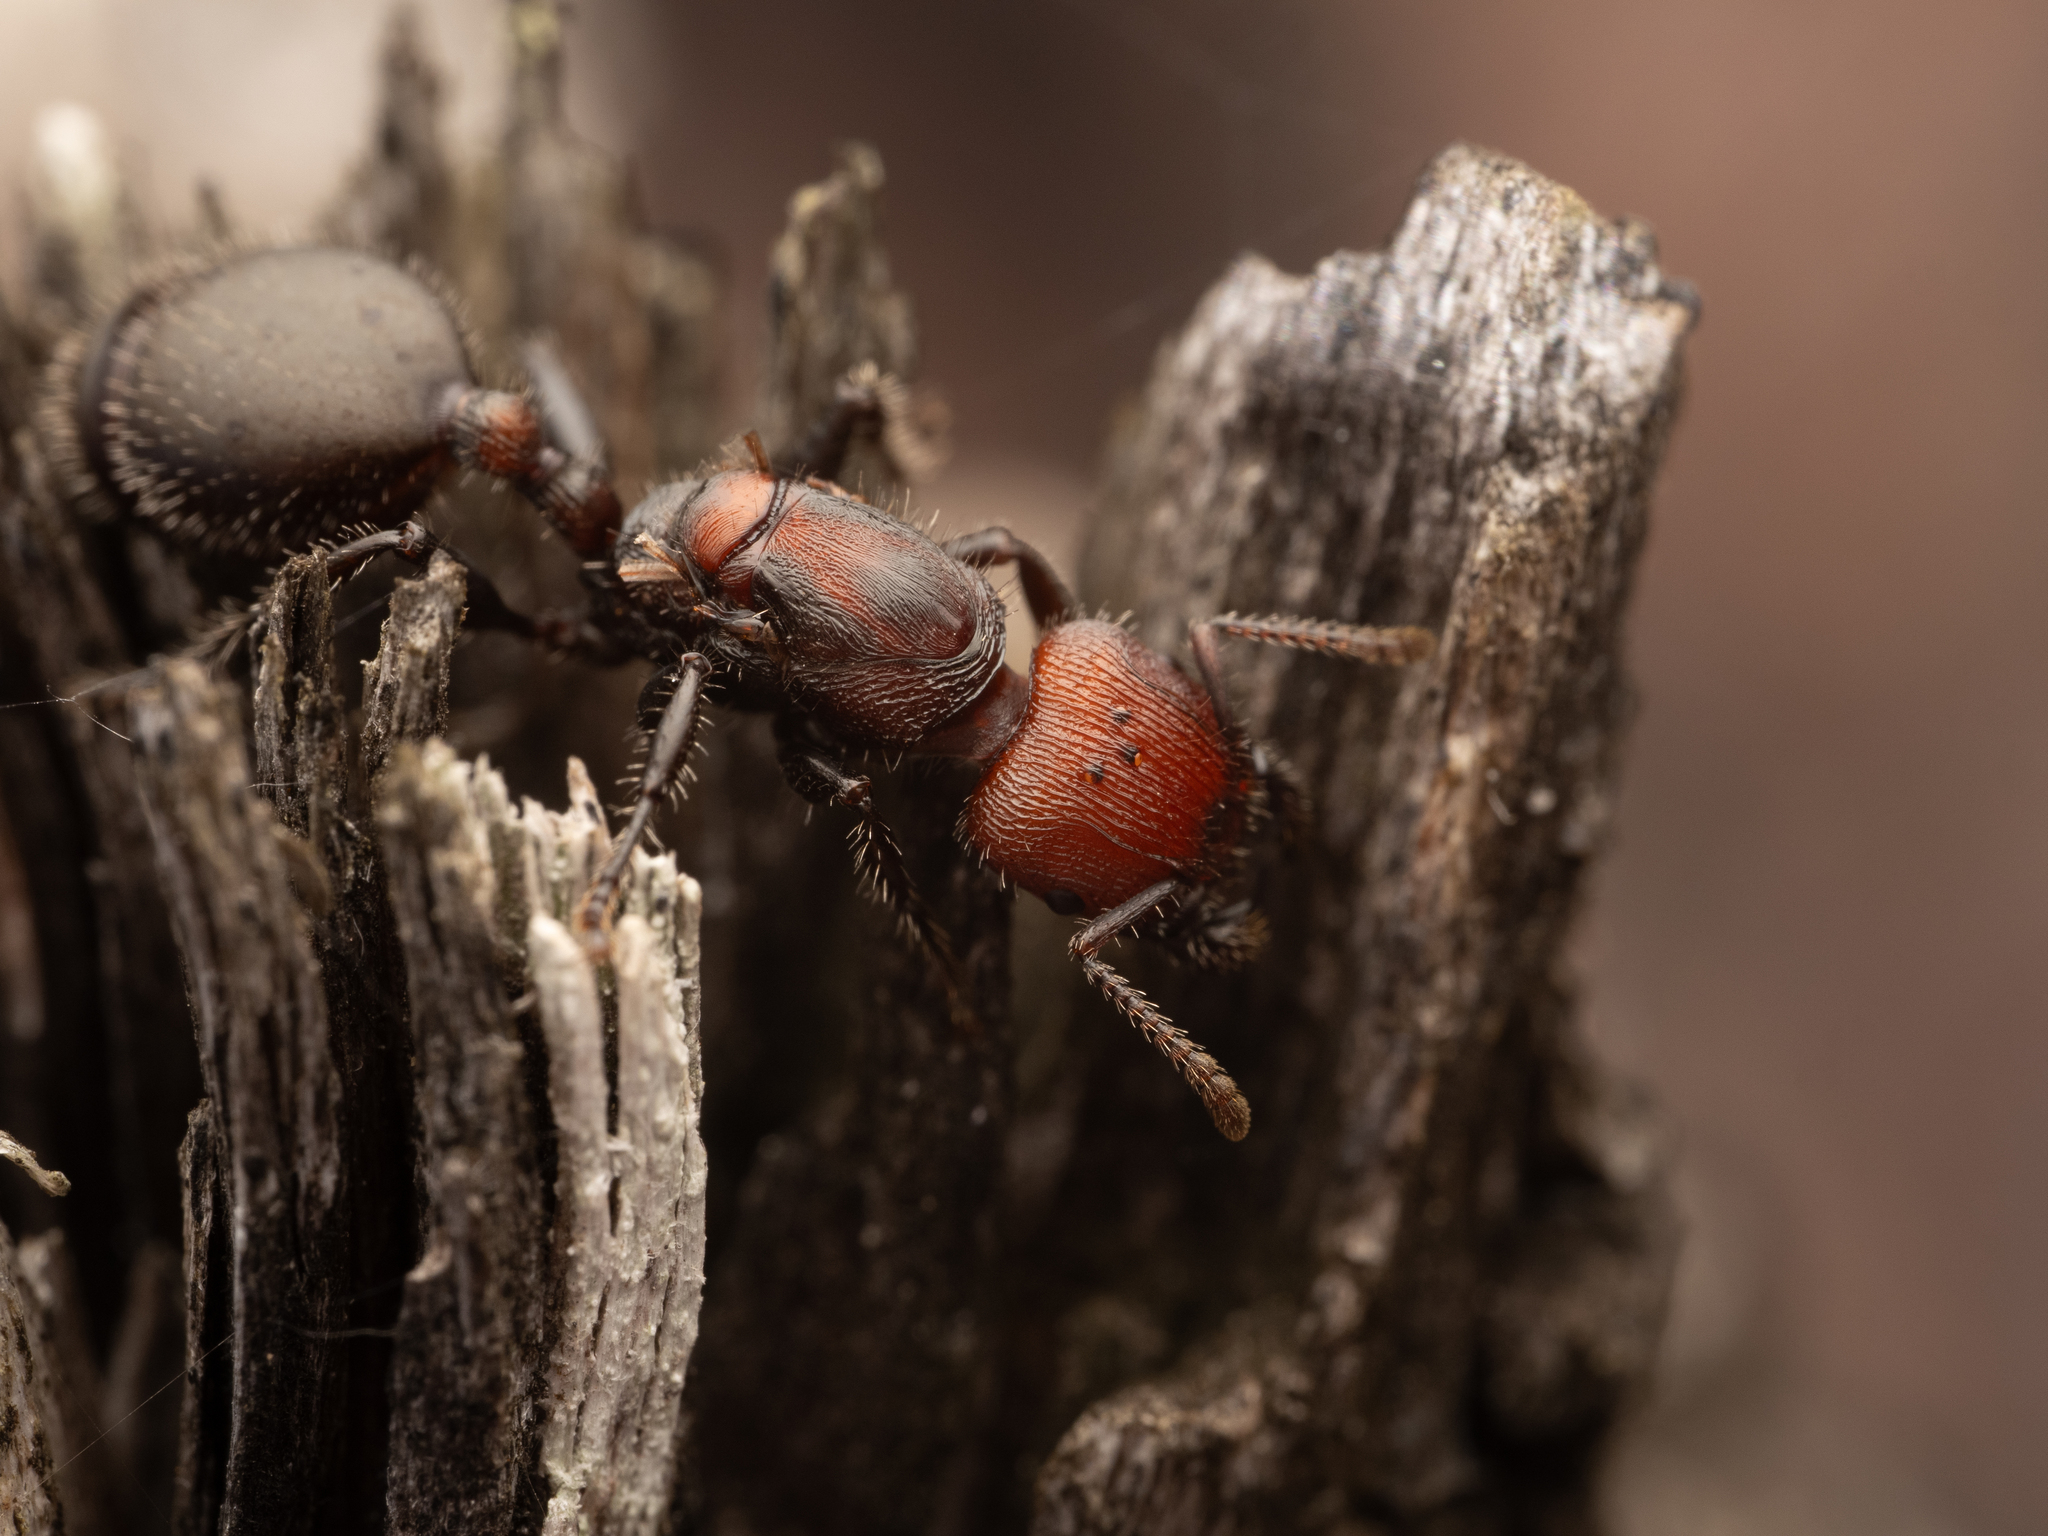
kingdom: Animalia
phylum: Arthropoda
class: Insecta
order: Hymenoptera
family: Formicidae
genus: Podomyrma
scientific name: Podomyrma micans
